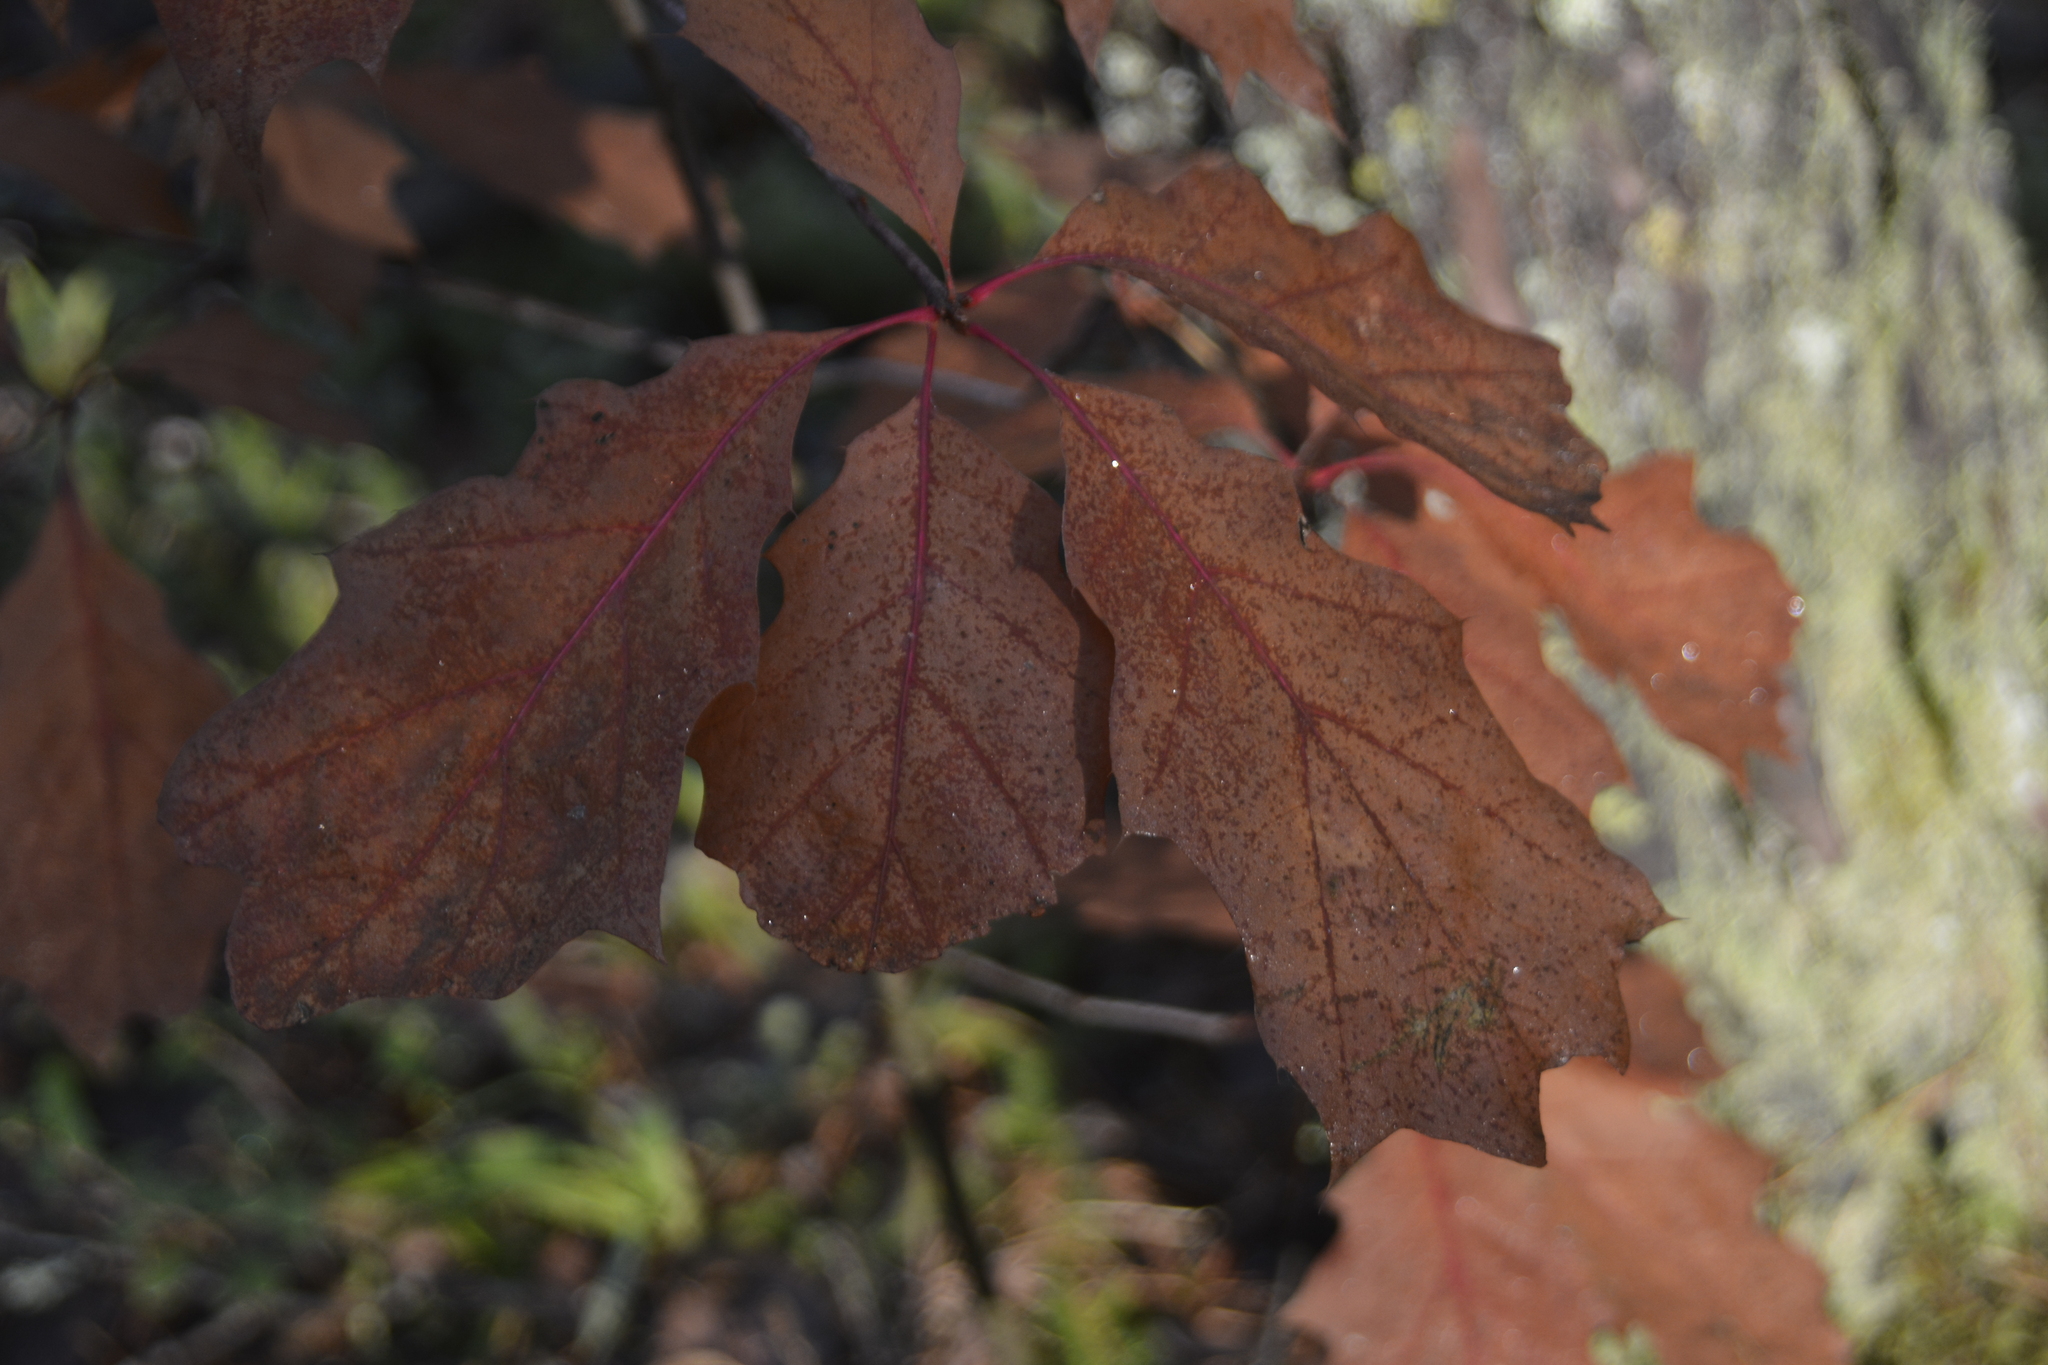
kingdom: Plantae
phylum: Tracheophyta
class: Magnoliopsida
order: Fagales
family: Fagaceae
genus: Quercus
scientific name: Quercus rubra
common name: Red oak
